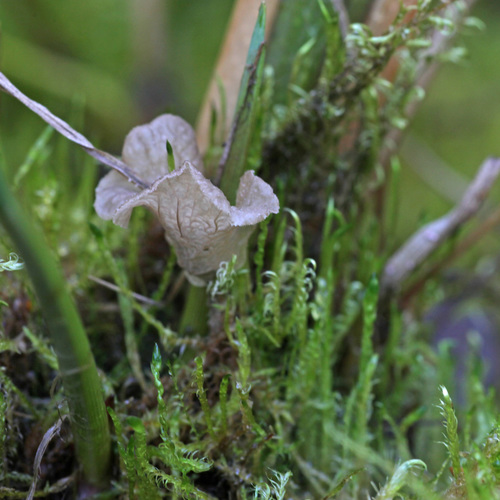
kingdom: Fungi
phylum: Basidiomycota
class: Agaricomycetes
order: Agaricales
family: Hygrophoraceae
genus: Arrhenia
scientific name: Arrhenia lobata
